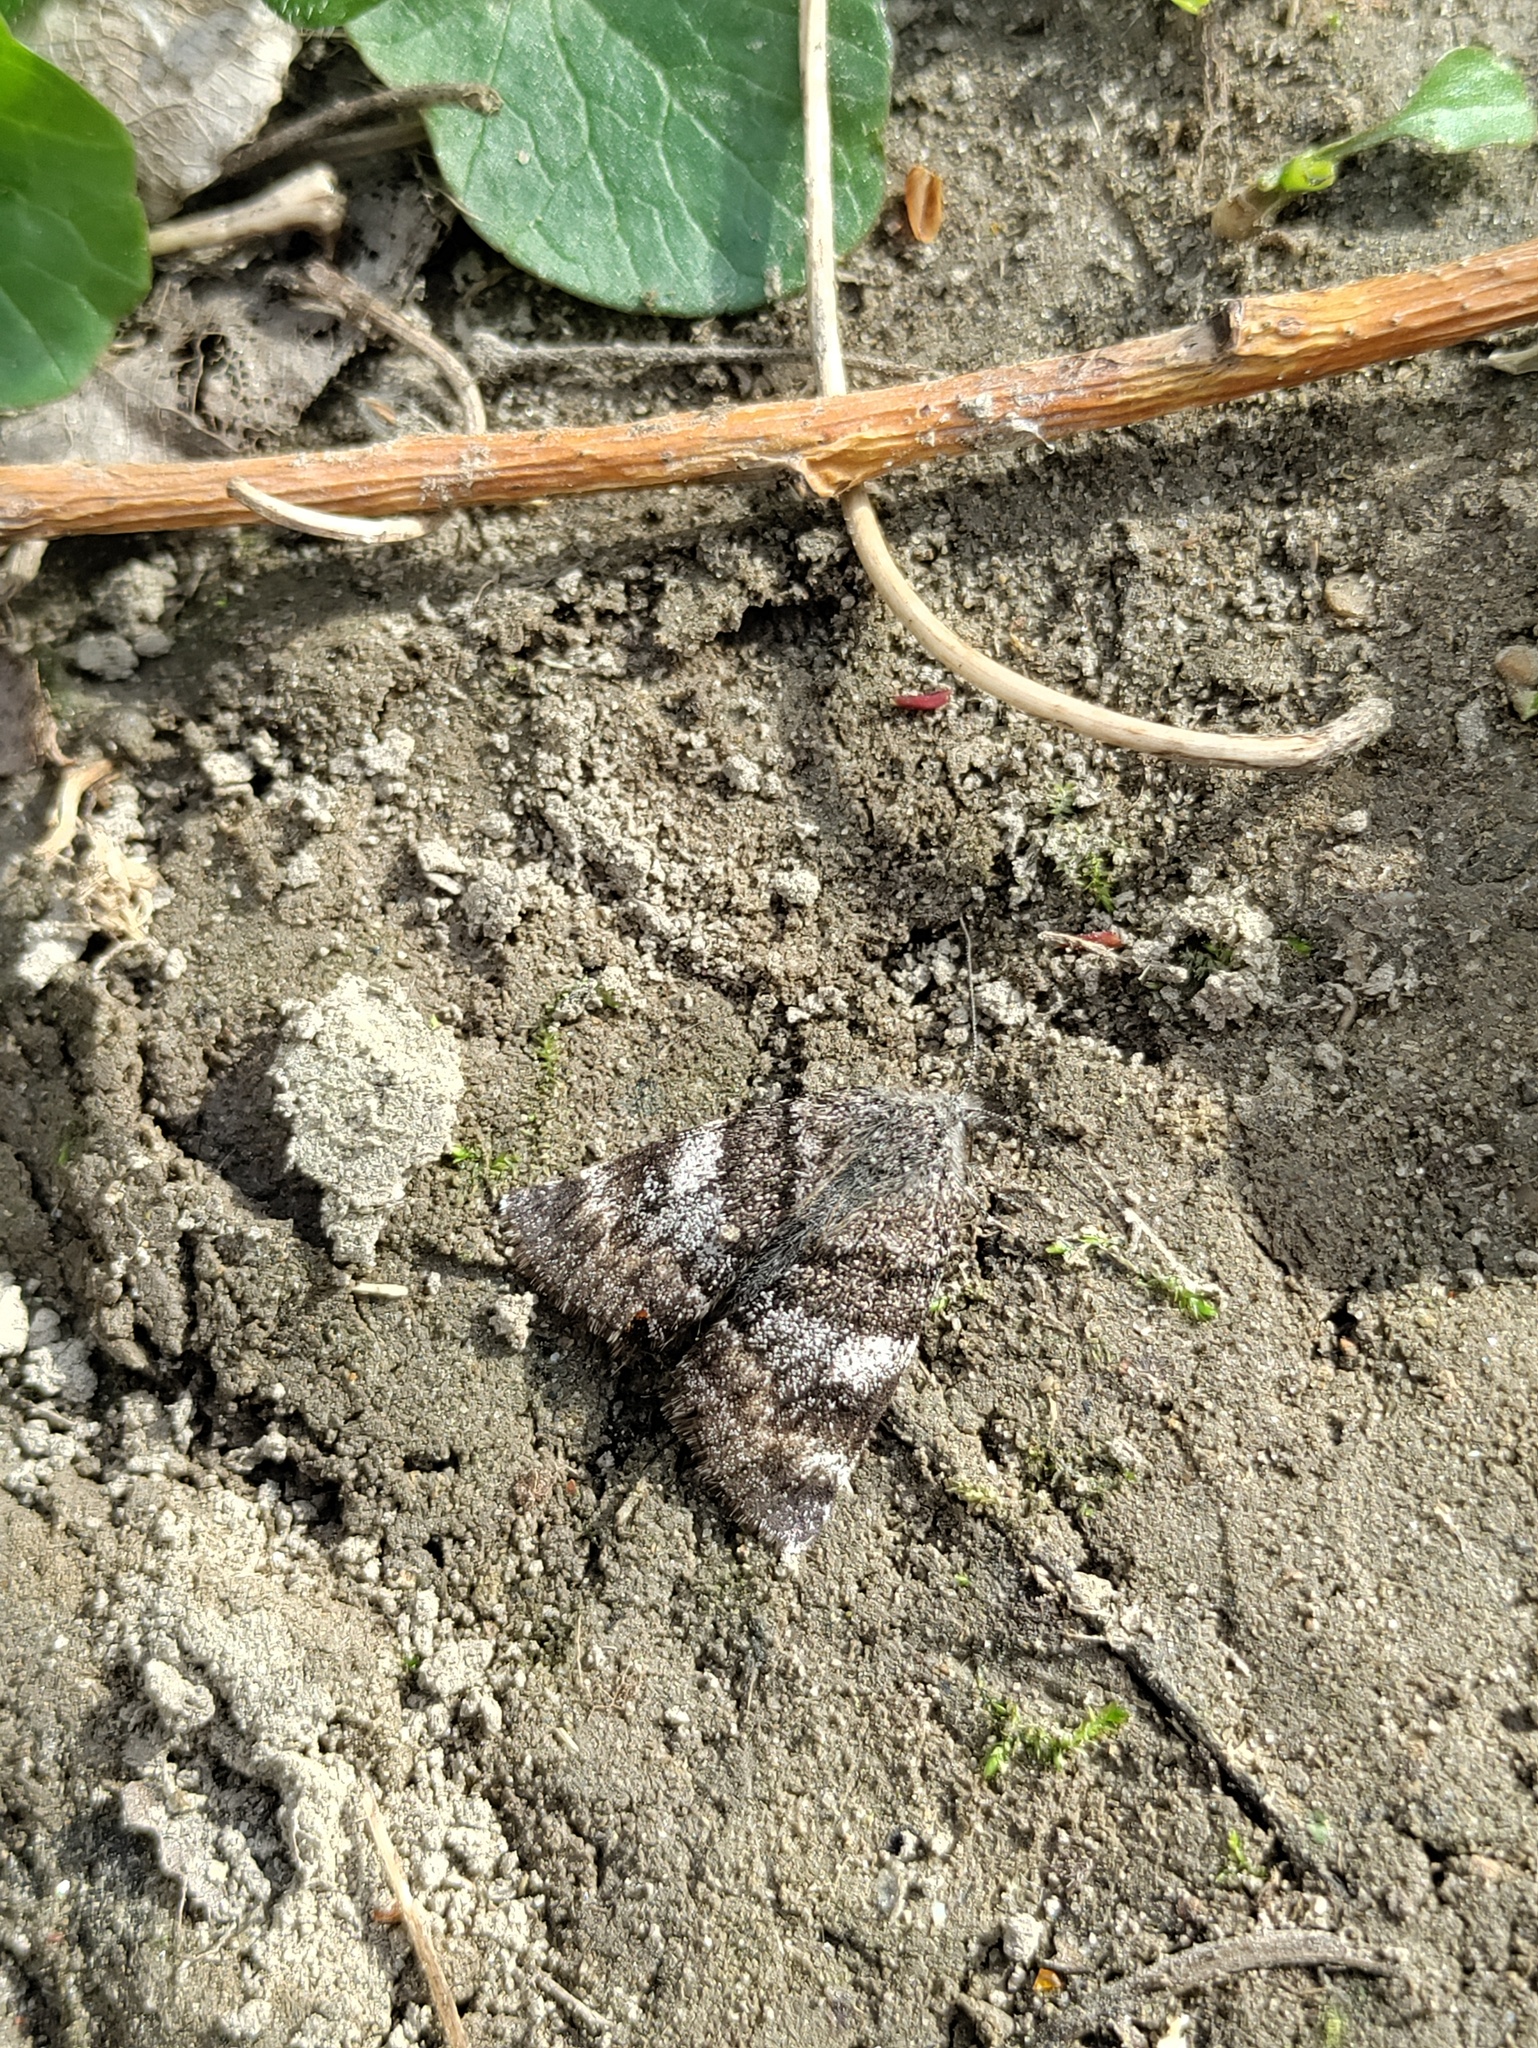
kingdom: Animalia
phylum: Arthropoda
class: Insecta
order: Lepidoptera
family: Geometridae
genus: Archiearis
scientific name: Archiearis notha
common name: Light orange underwing
